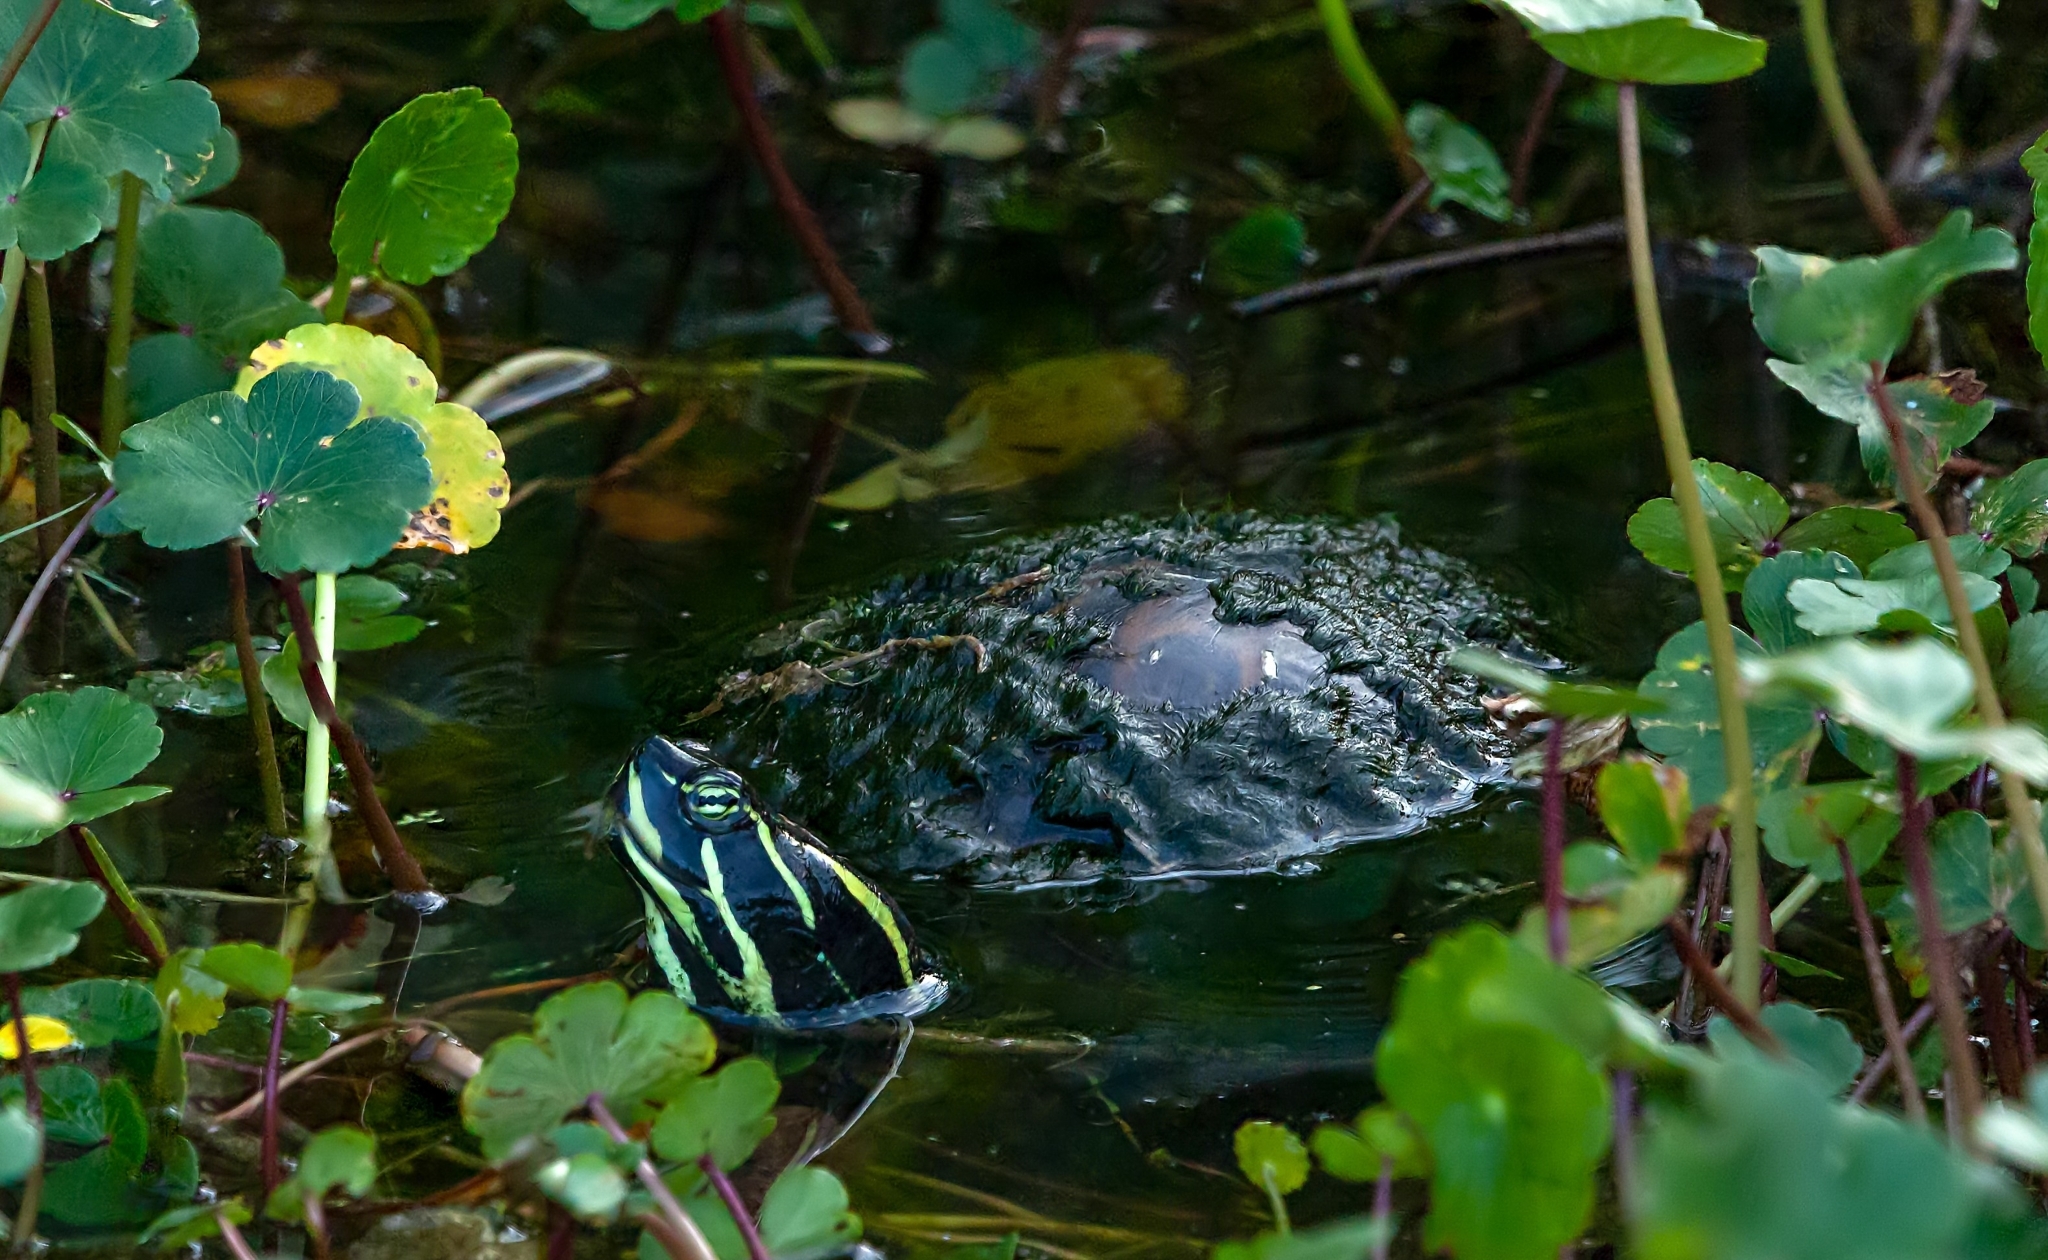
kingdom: Animalia
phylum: Chordata
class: Testudines
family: Emydidae
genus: Pseudemys
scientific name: Pseudemys nelsoni
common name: Florida red-bellied turtle
